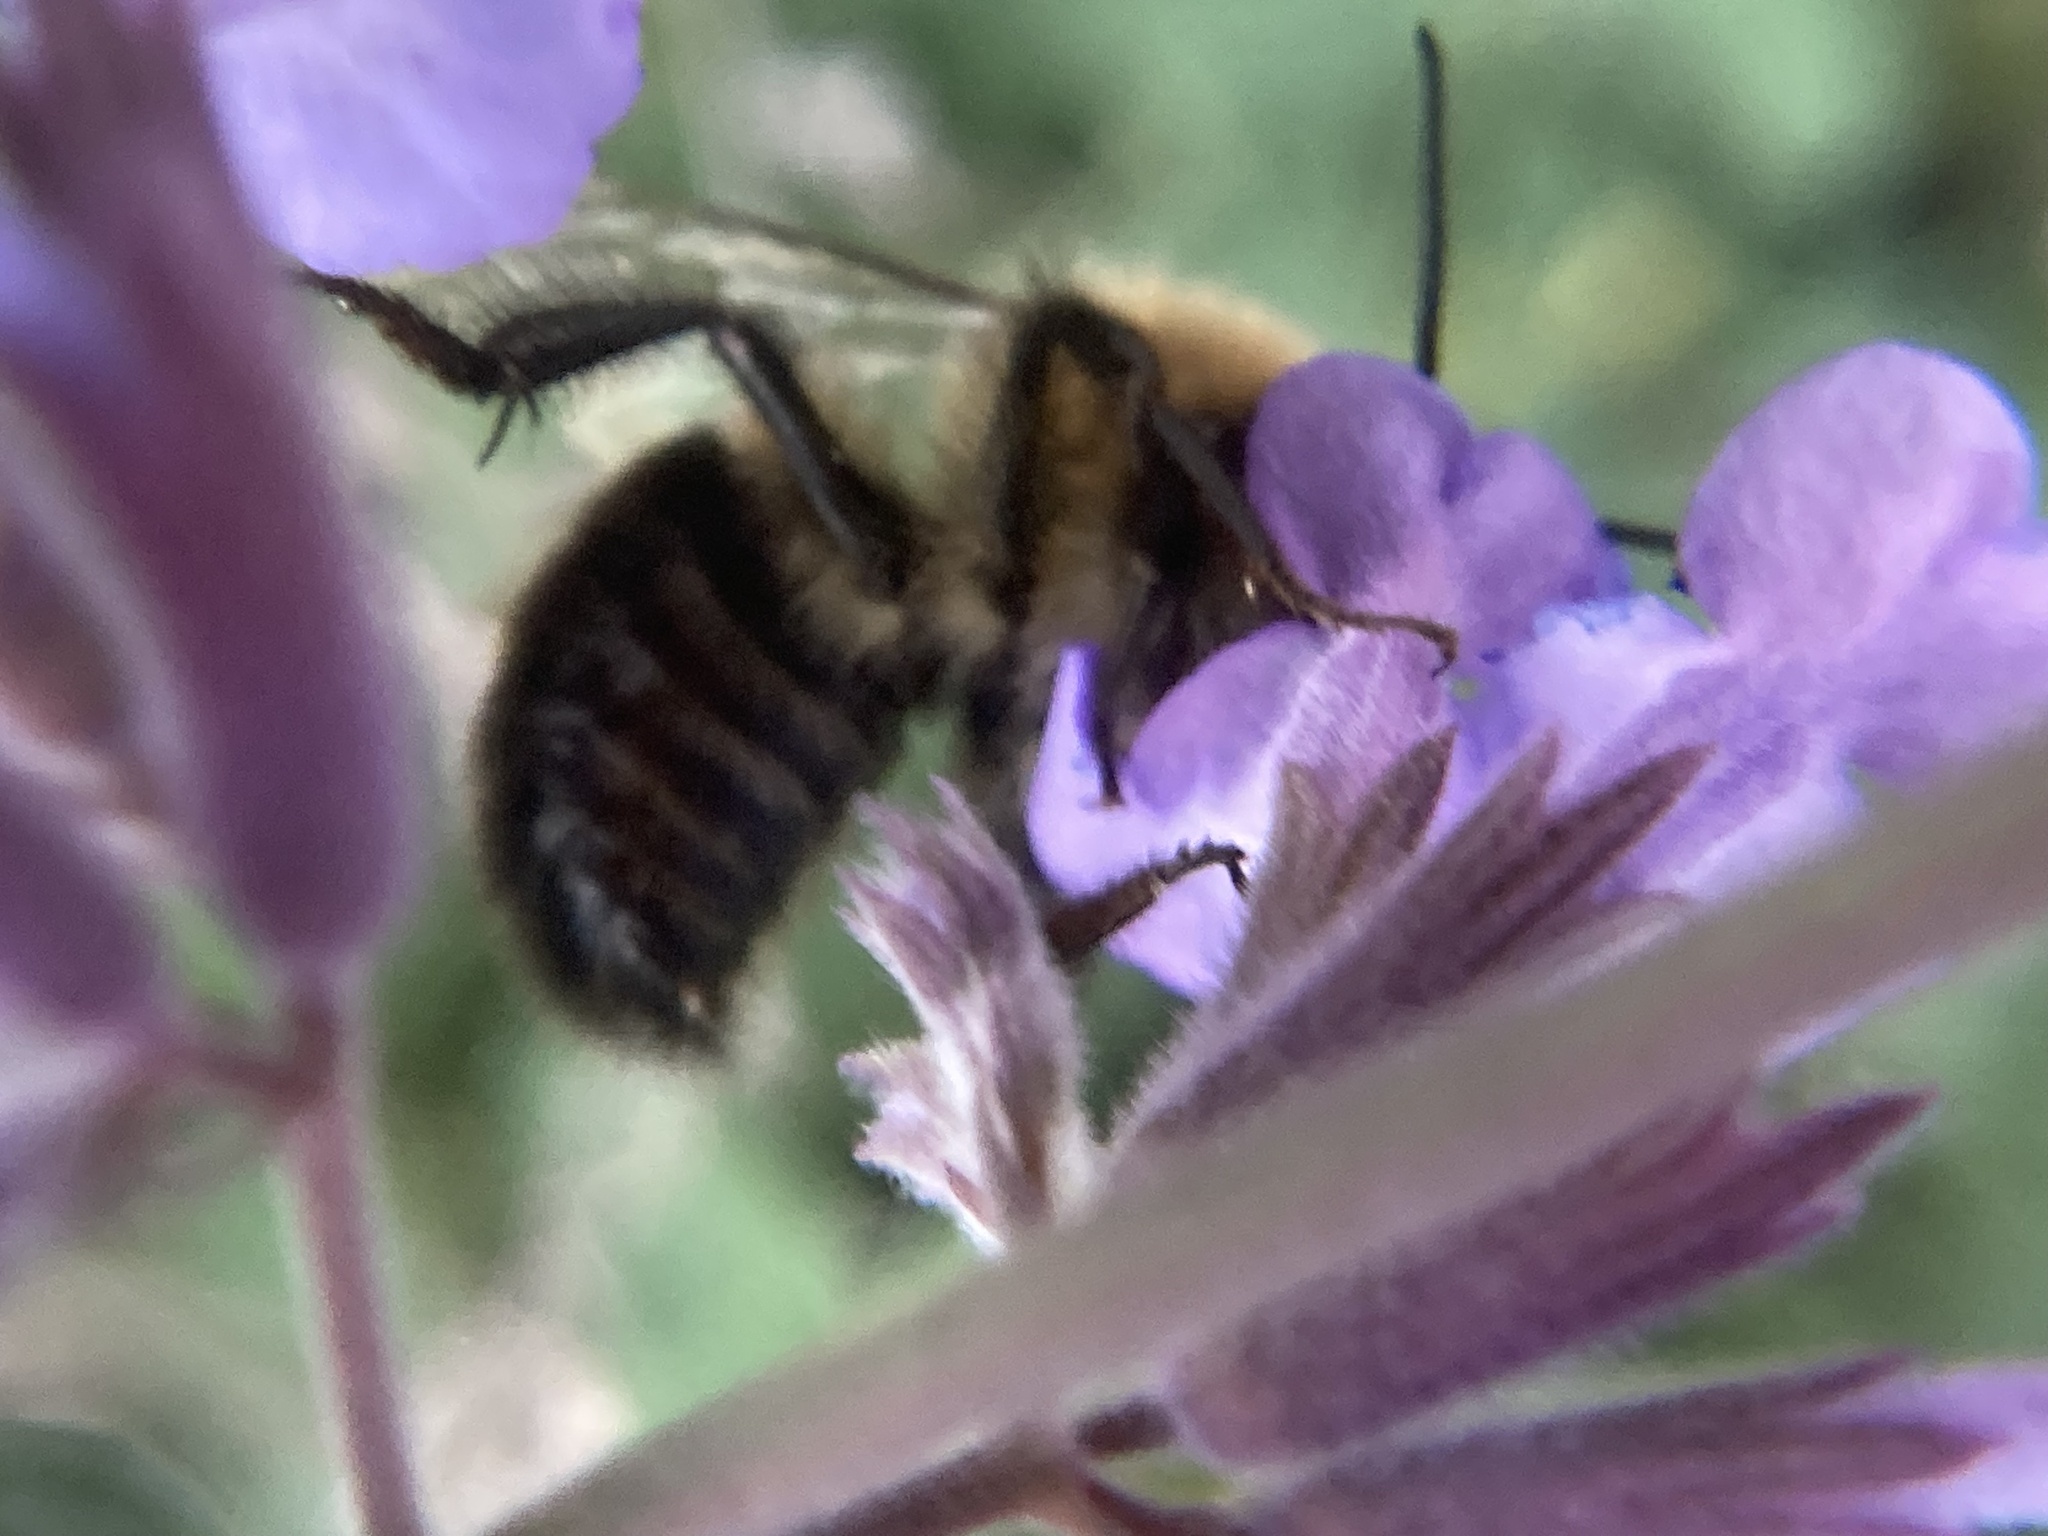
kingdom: Animalia
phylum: Arthropoda
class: Insecta
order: Hymenoptera
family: Apidae
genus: Bombus
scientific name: Bombus impatiens
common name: Common eastern bumble bee
